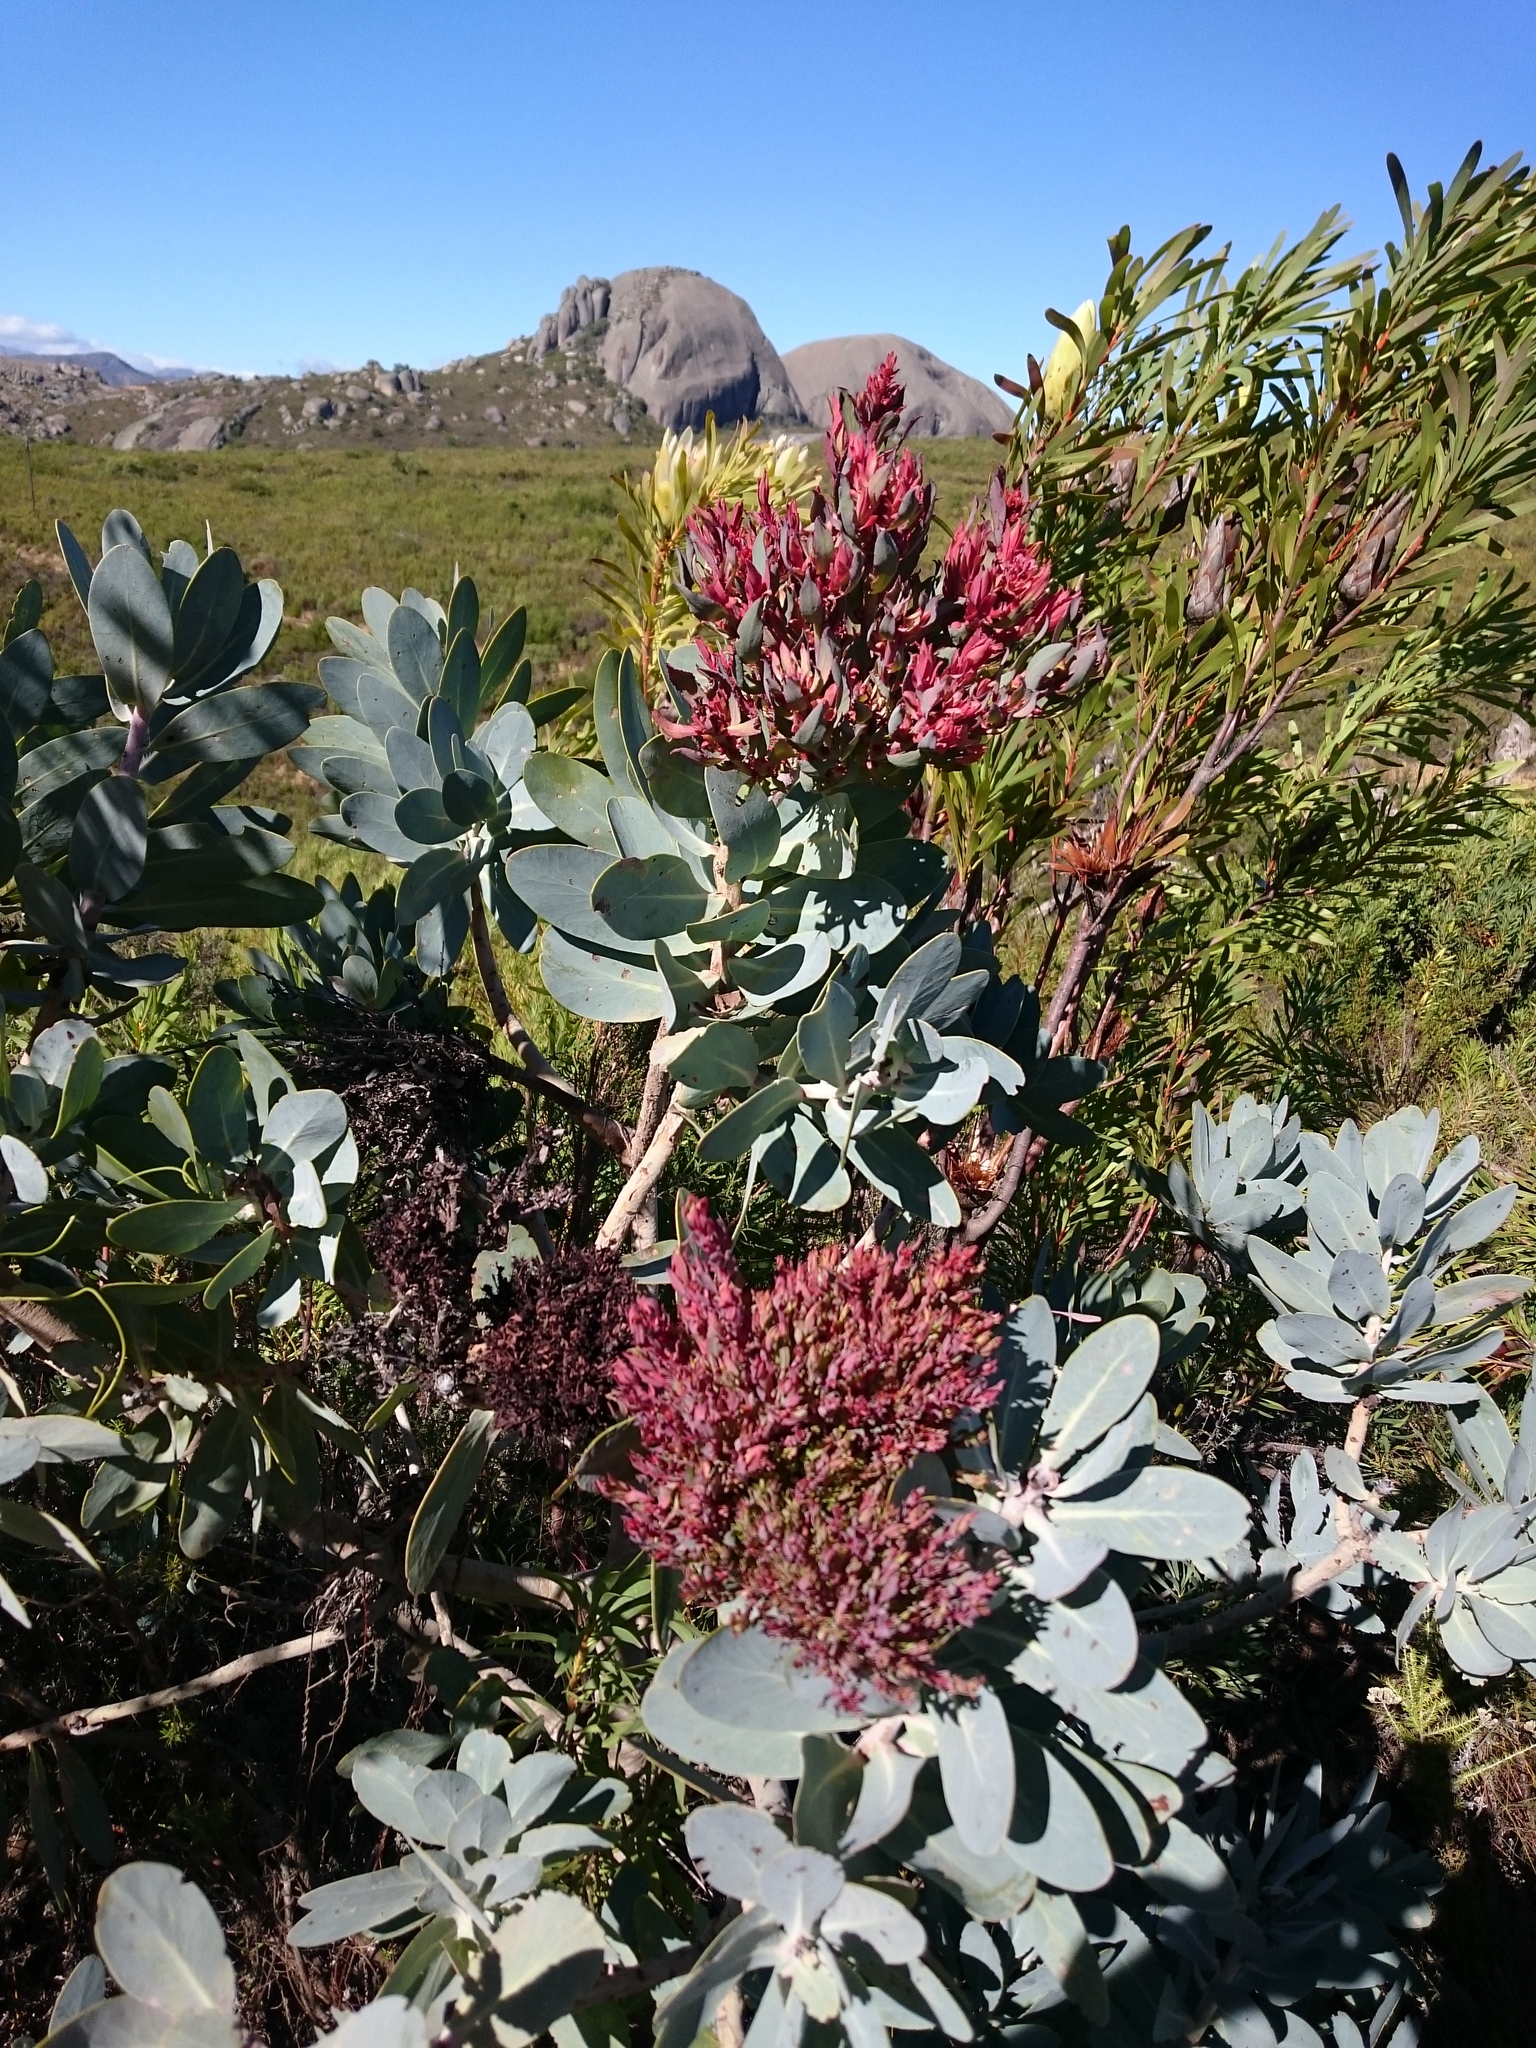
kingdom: Plantae
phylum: Tracheophyta
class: Magnoliopsida
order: Proteales
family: Proteaceae
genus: Protea
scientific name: Protea nitida
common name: Tree protea
